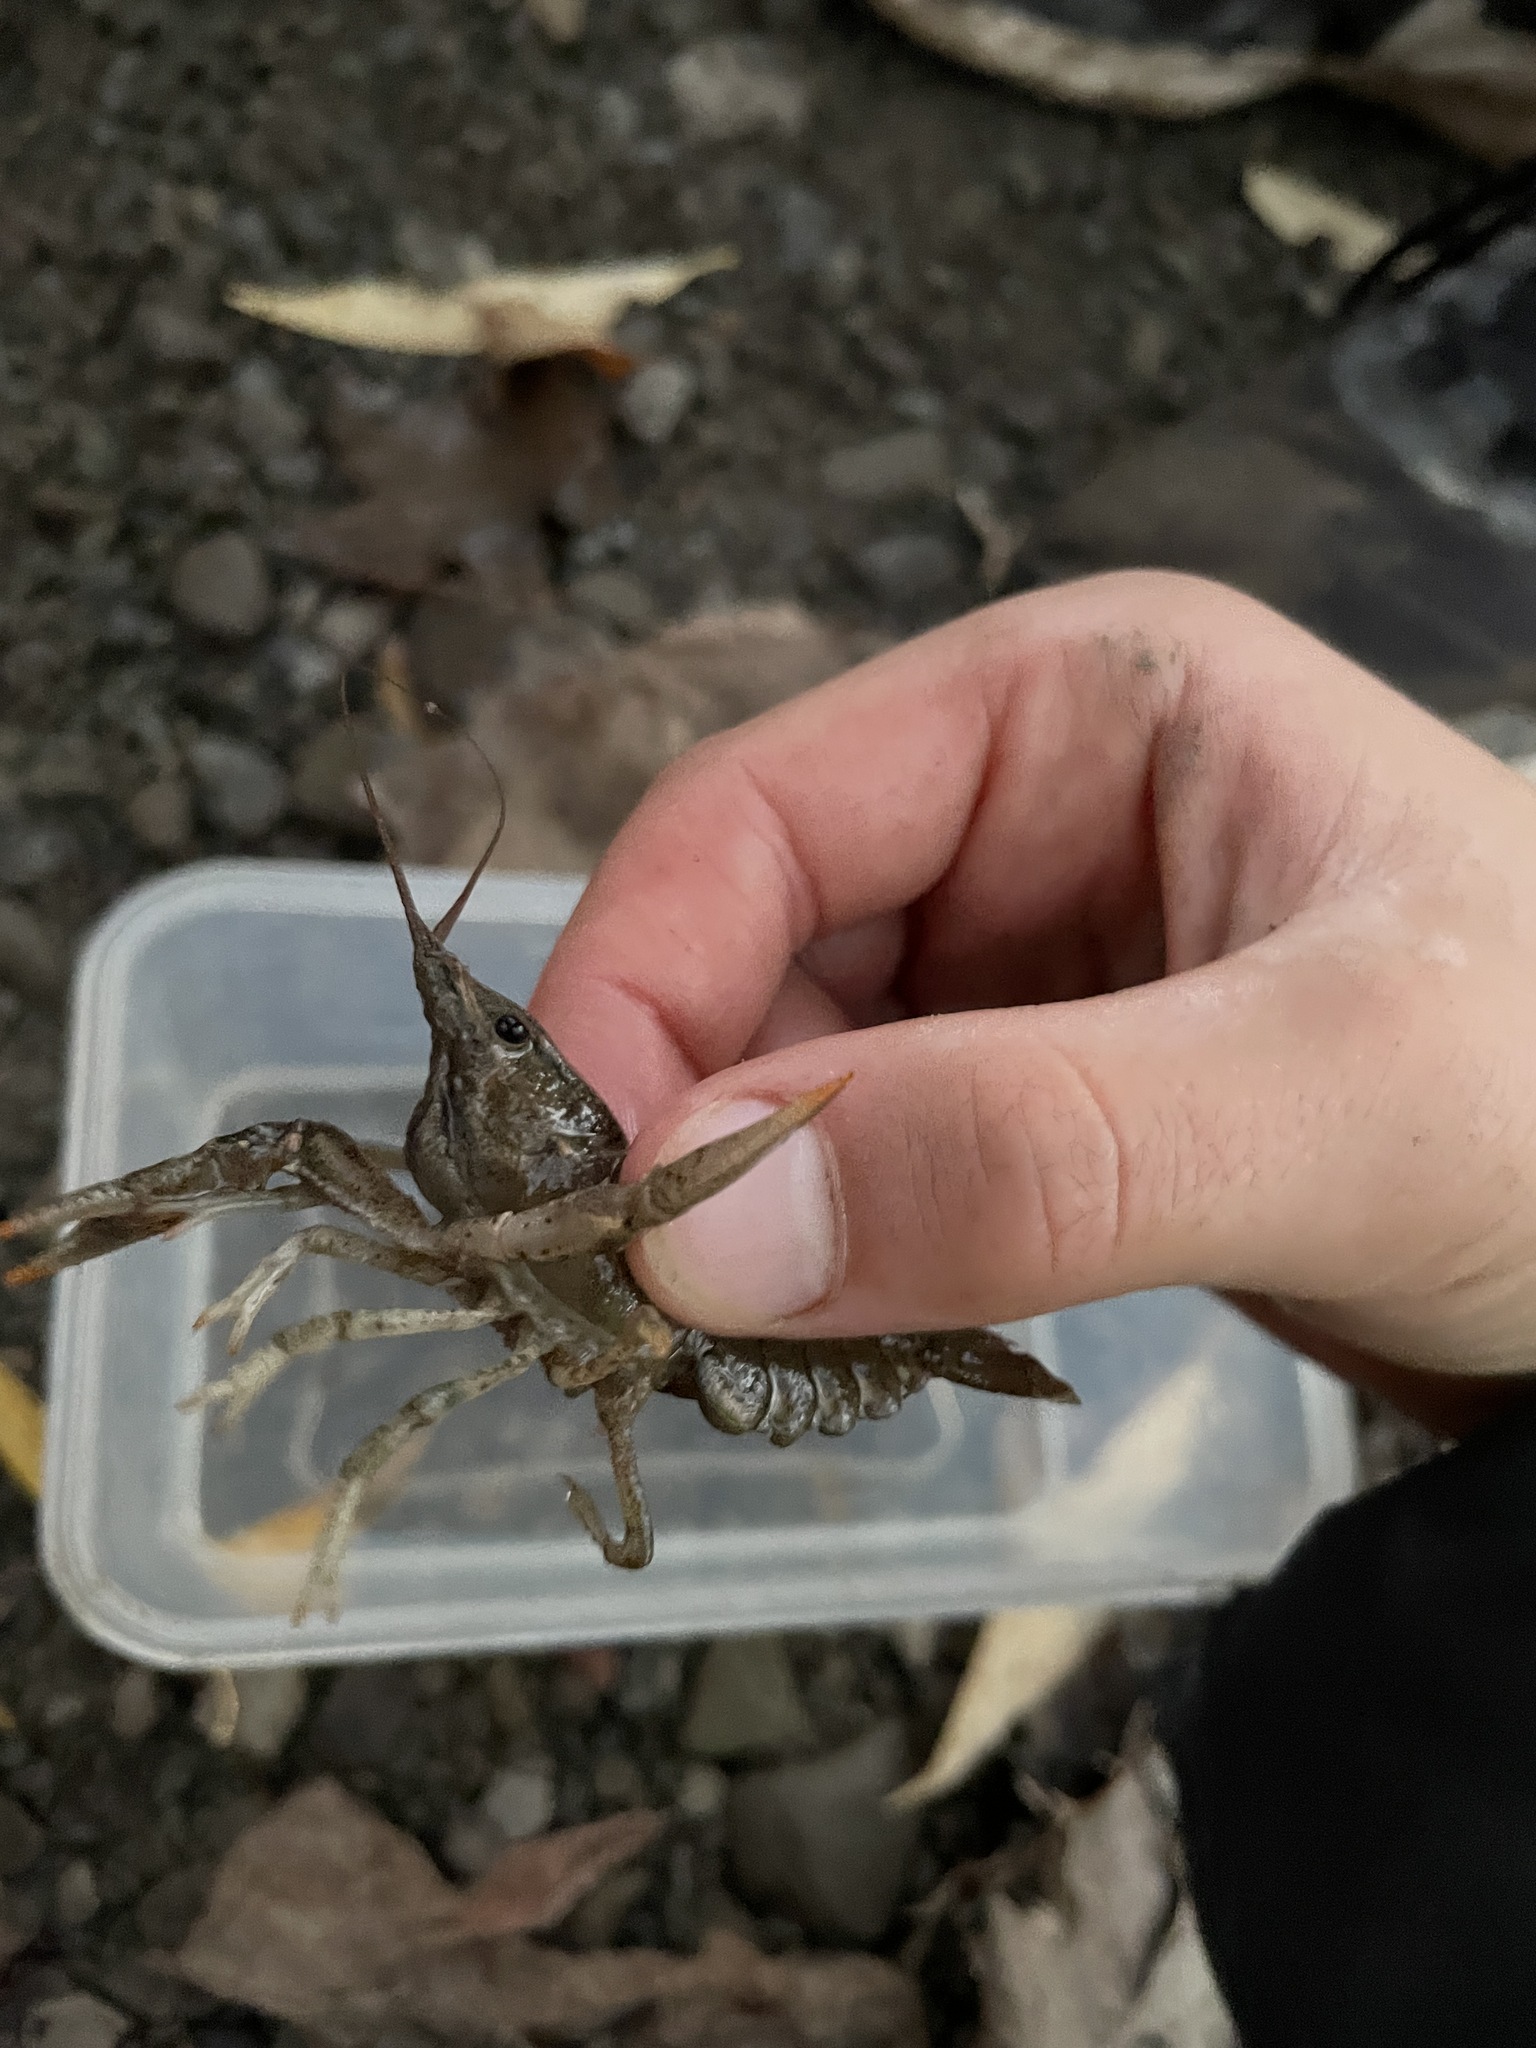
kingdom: Animalia
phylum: Arthropoda
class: Malacostraca
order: Decapoda
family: Cambaridae
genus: Faxonius
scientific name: Faxonius virilis
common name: Virile crayfish
